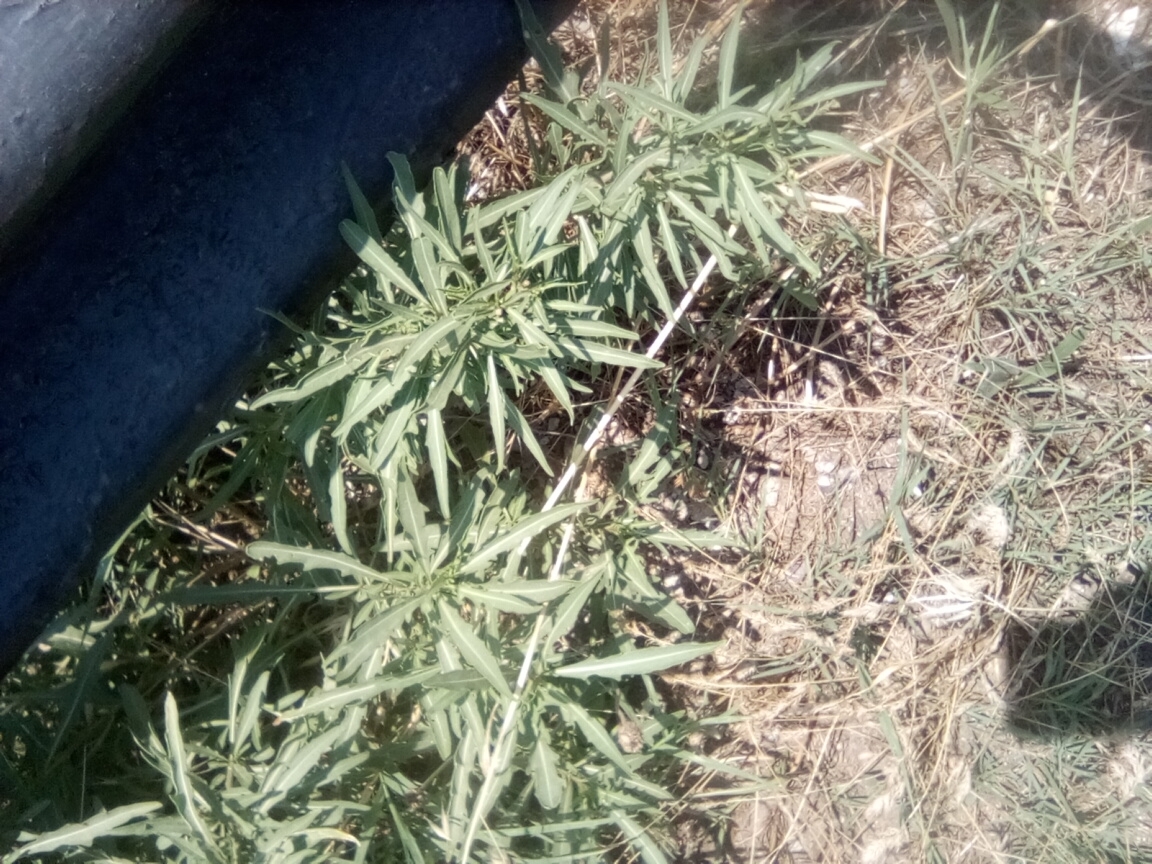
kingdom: Plantae
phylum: Tracheophyta
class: Magnoliopsida
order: Brassicales
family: Brassicaceae
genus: Diplotaxis
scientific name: Diplotaxis tenuifolia
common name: Perennial wall-rocket
